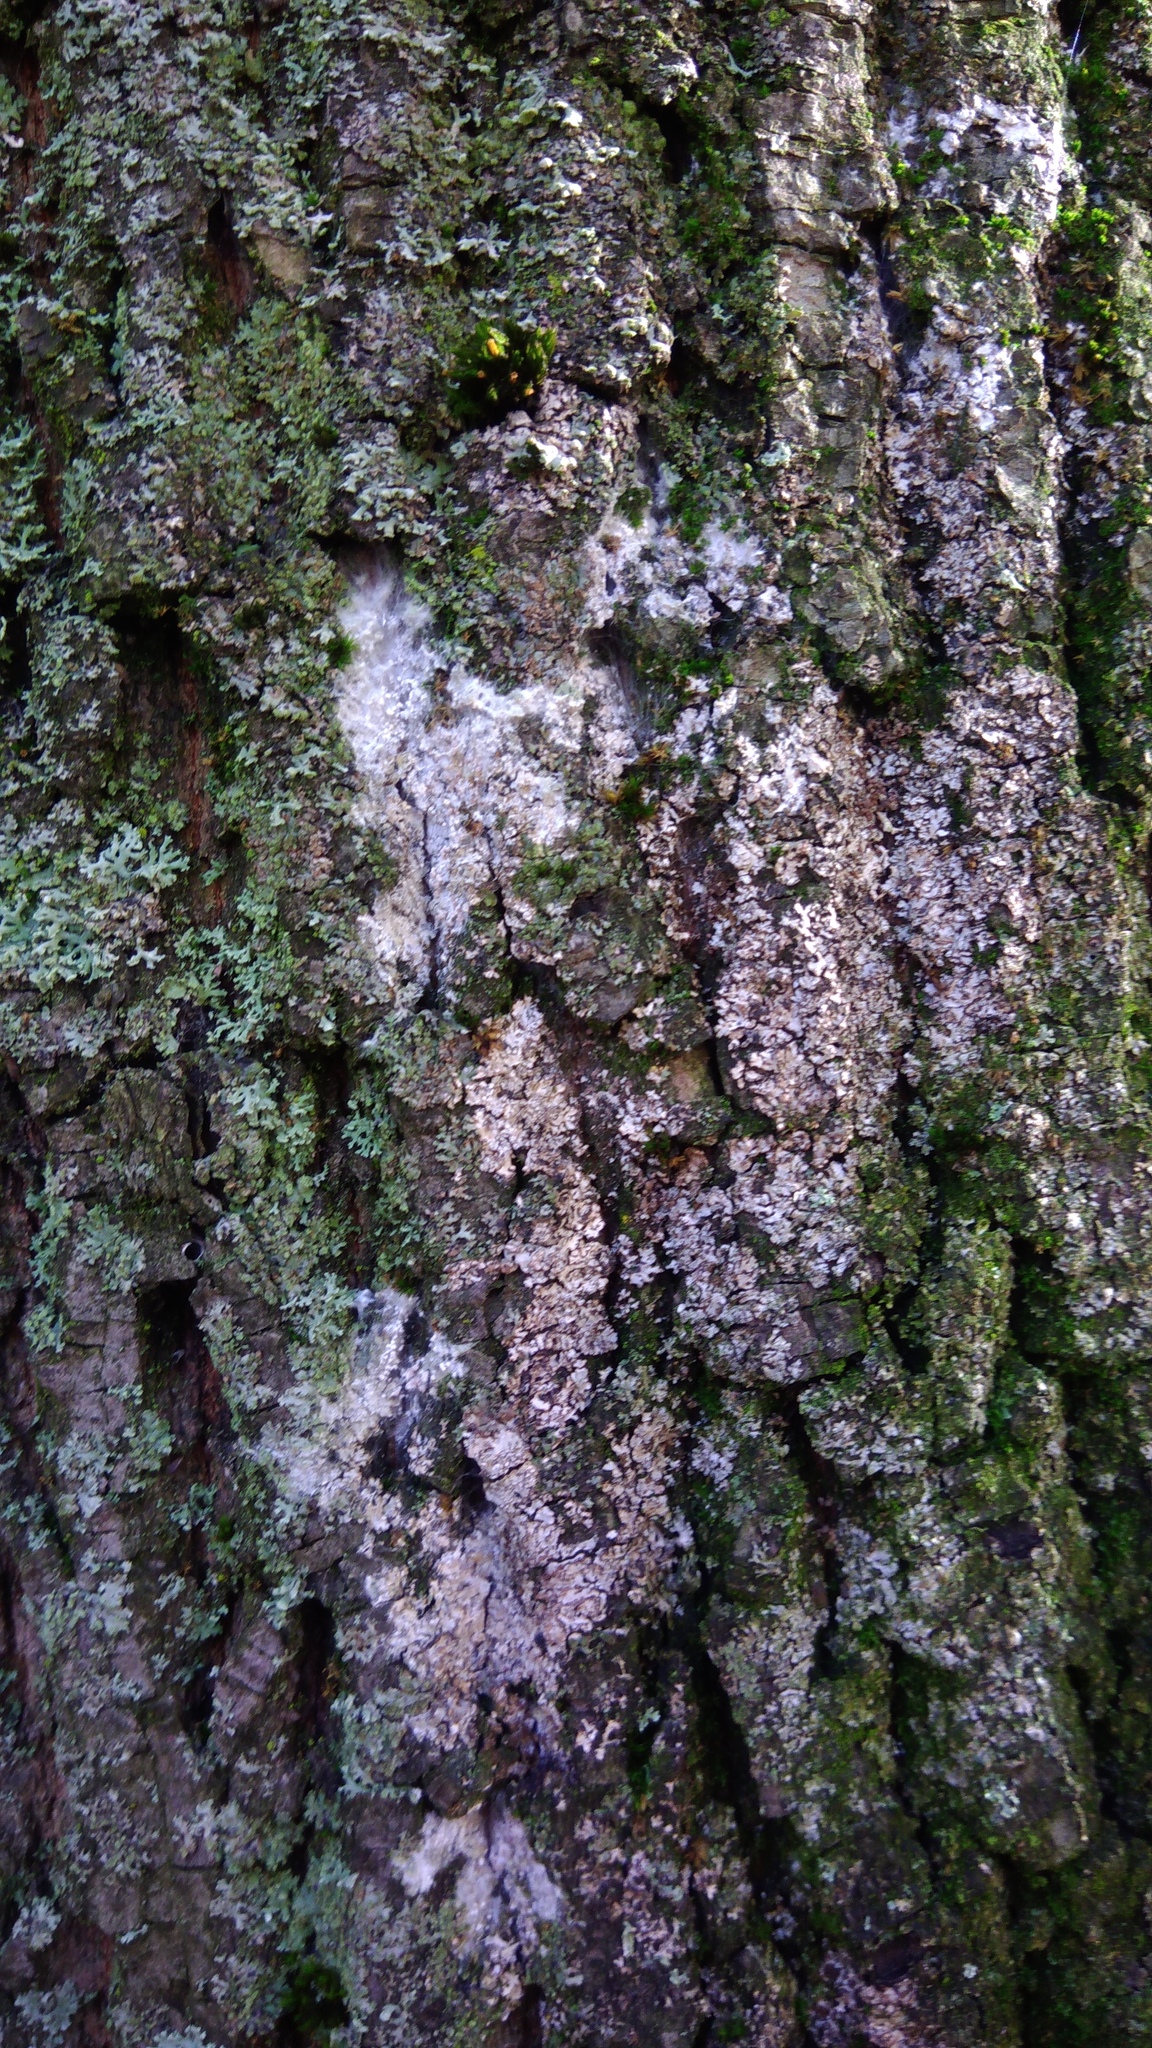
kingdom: Fungi
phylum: Basidiomycota
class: Agaricomycetes
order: Atheliales
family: Atheliaceae
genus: Athelia
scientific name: Athelia arachnoidea
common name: Candelabra duster
